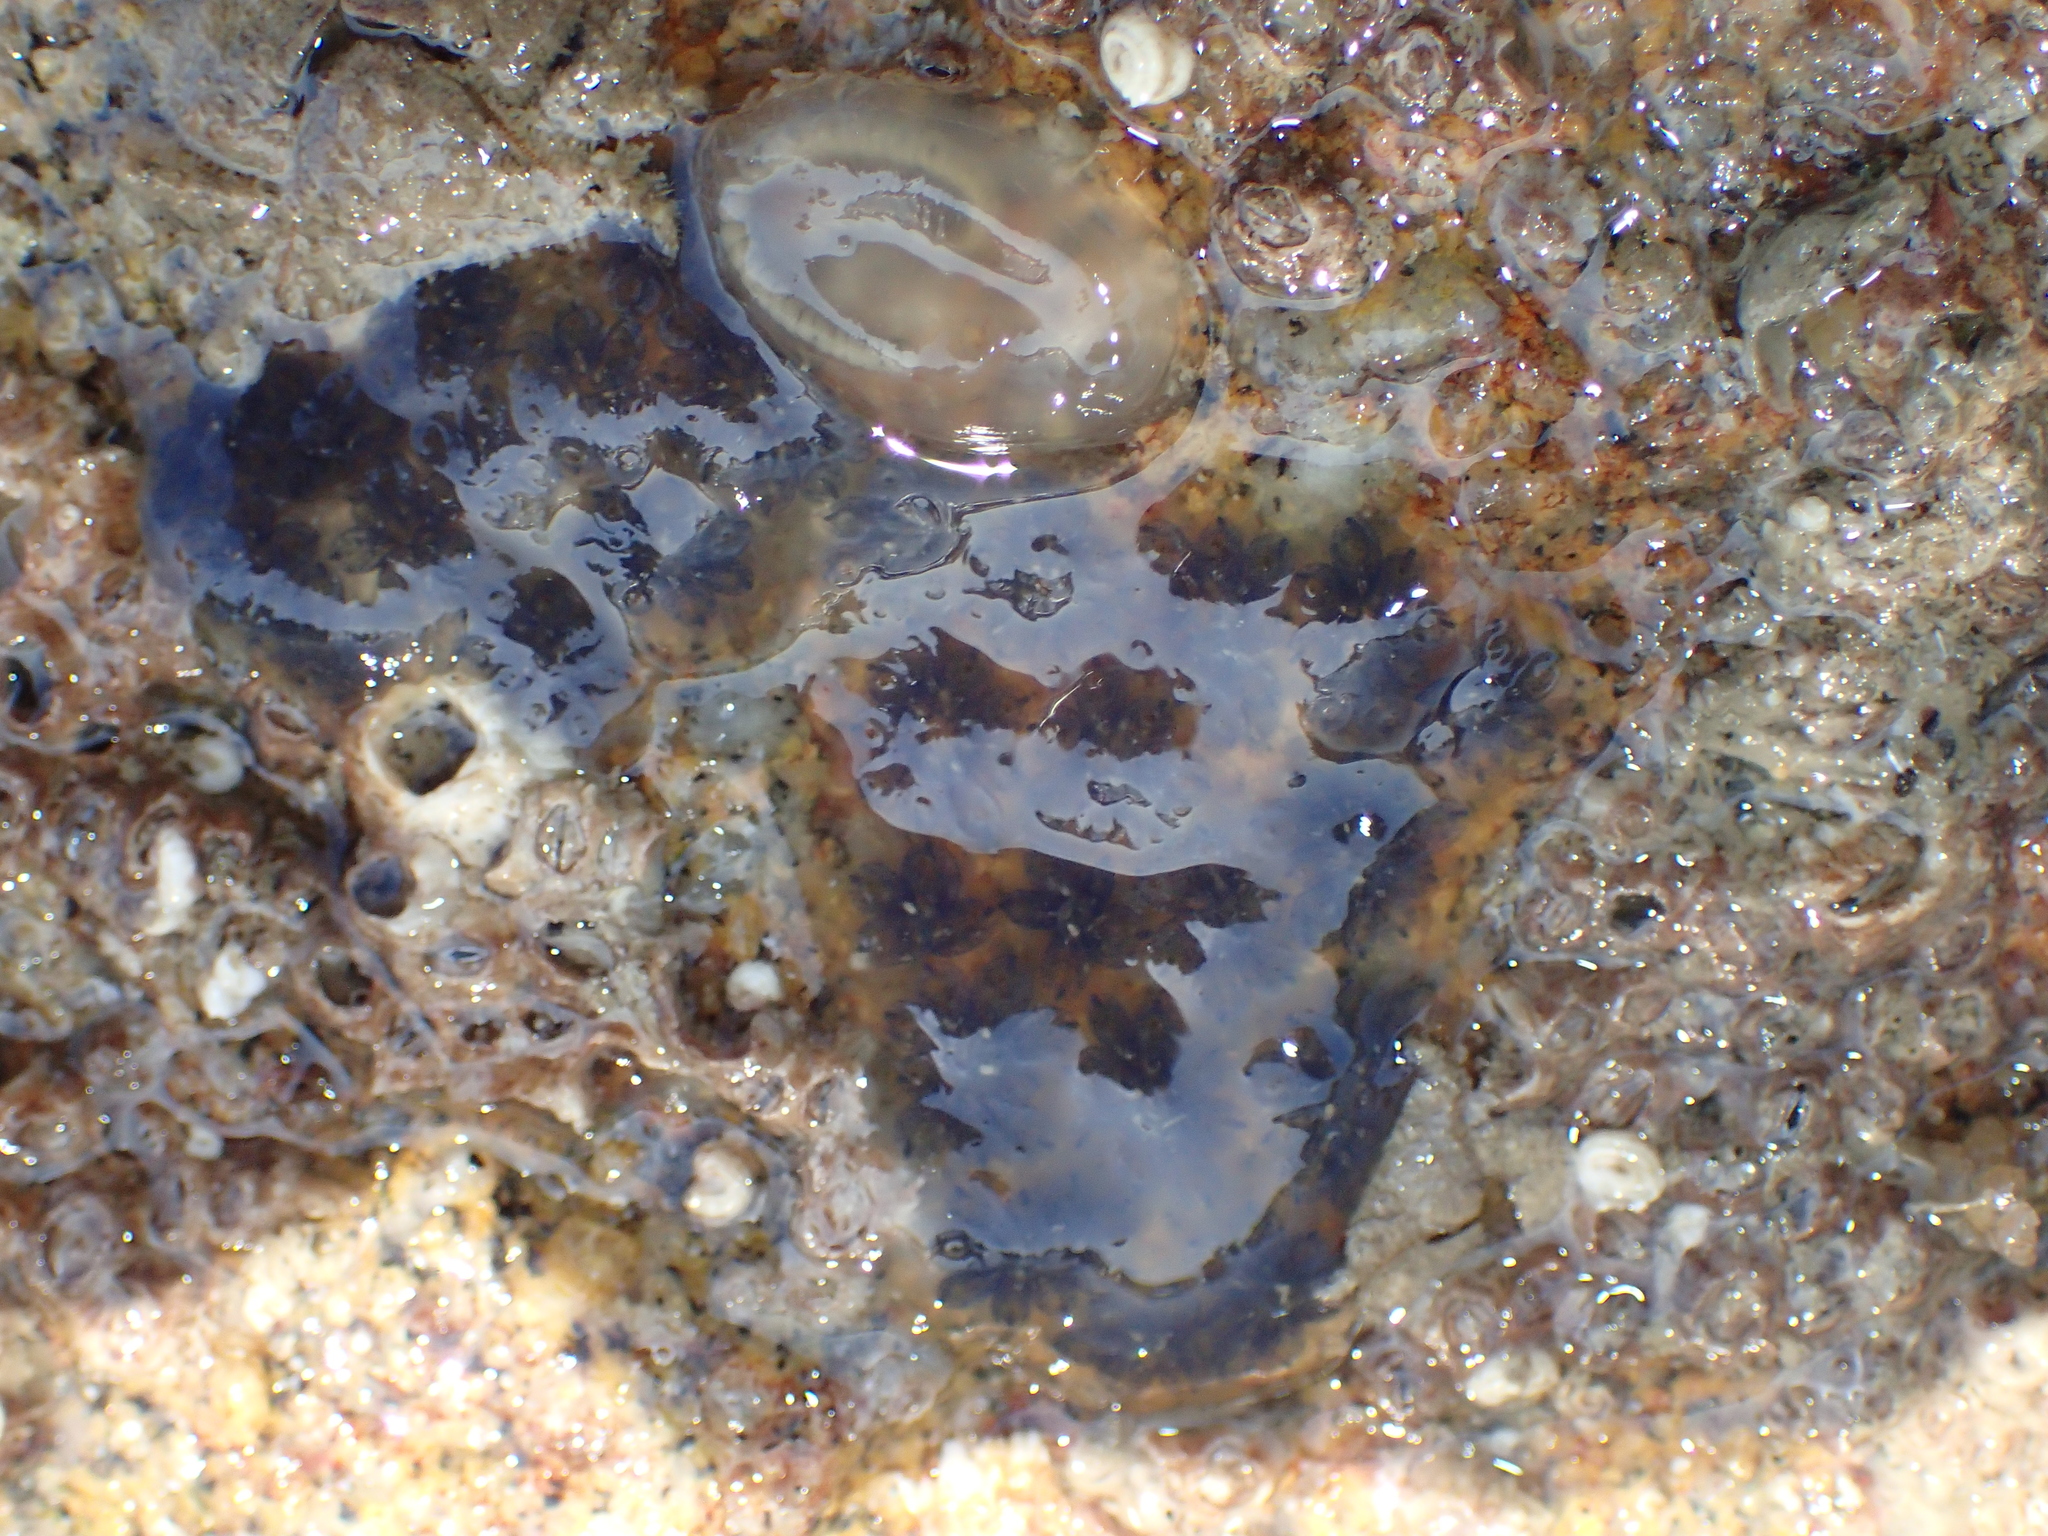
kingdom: Animalia
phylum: Chordata
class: Ascidiacea
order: Stolidobranchia
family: Styelidae
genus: Botryllus
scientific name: Botryllus schlosseri
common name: Golden star tunicate
